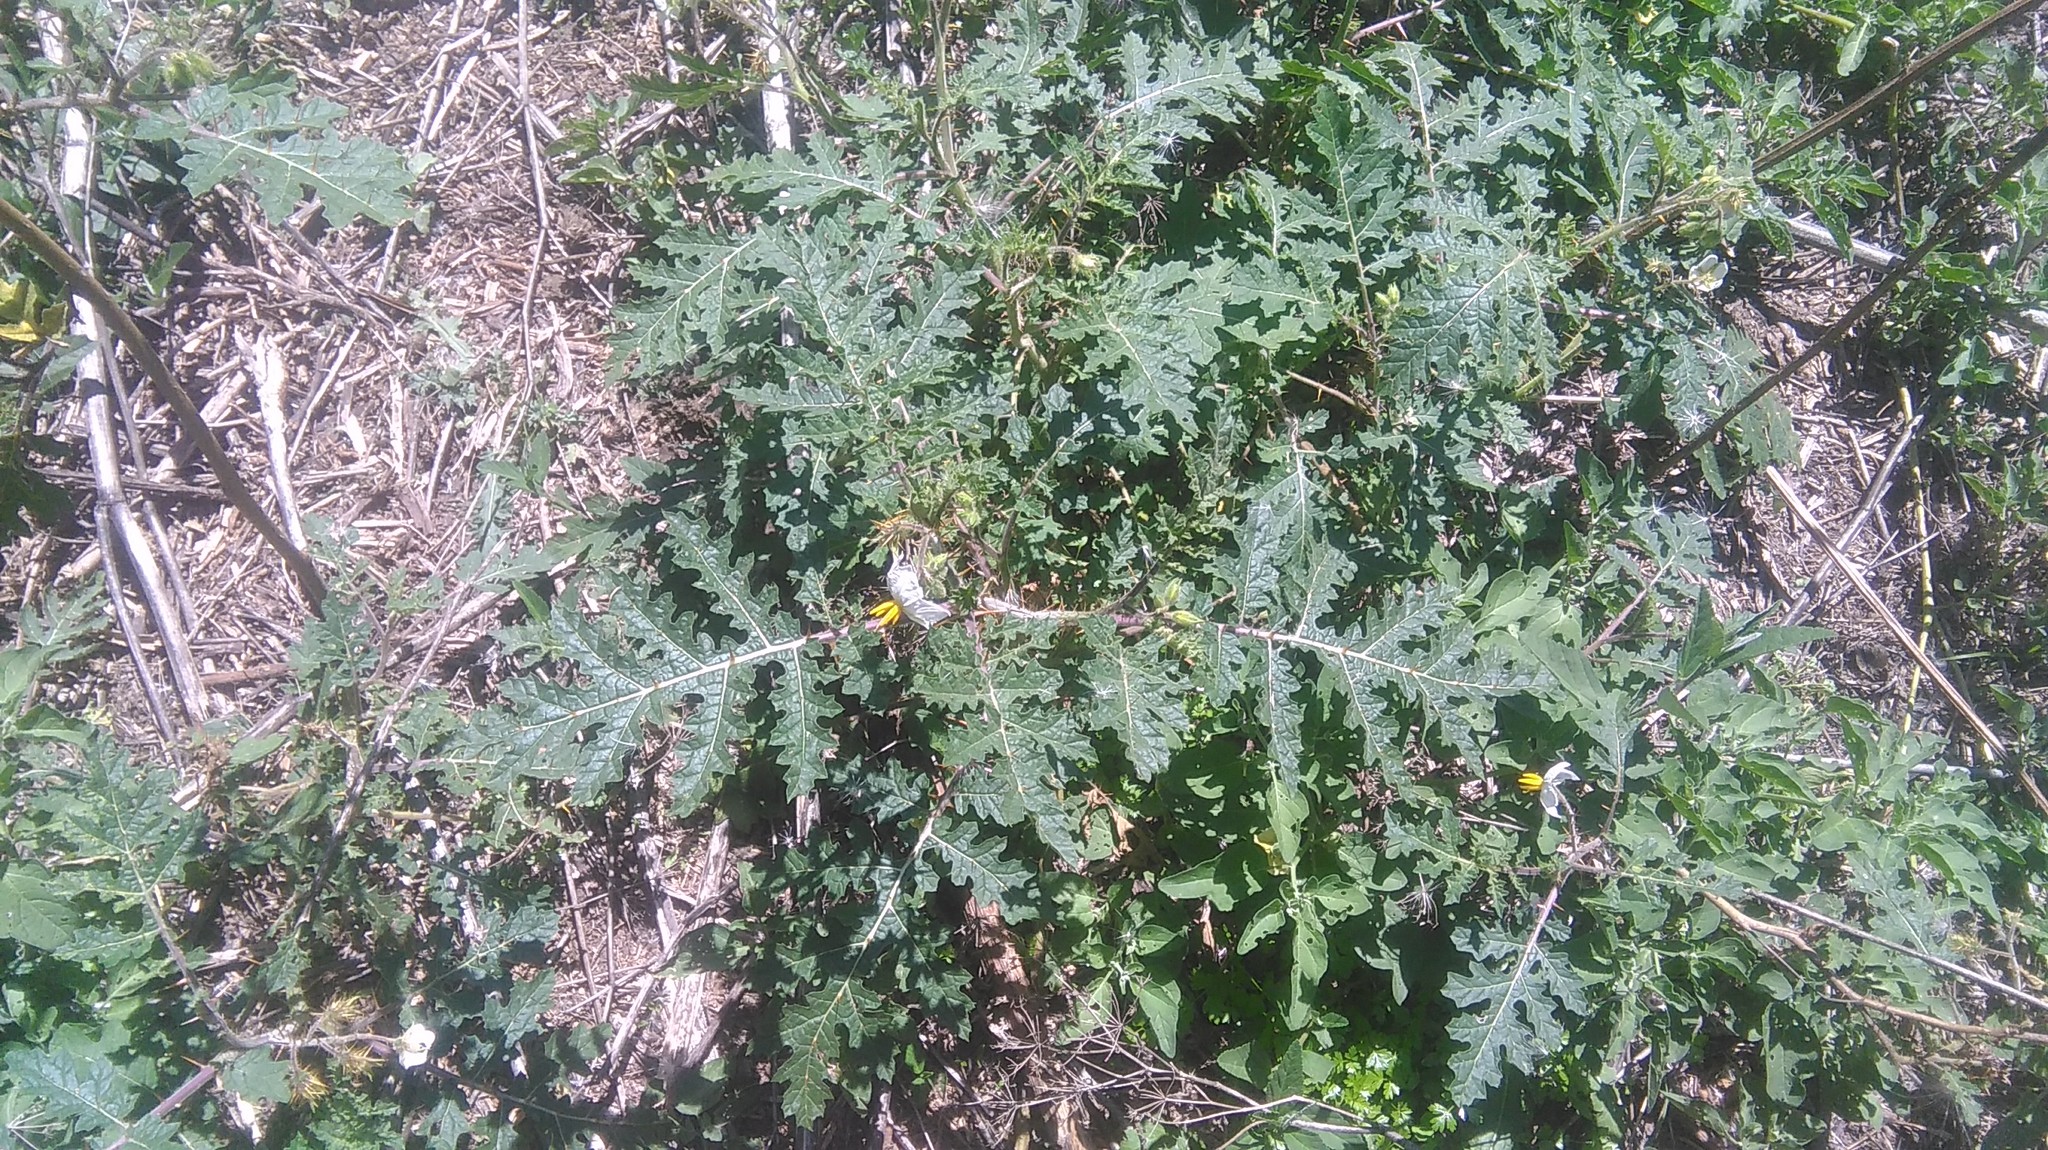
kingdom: Plantae
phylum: Tracheophyta
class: Magnoliopsida
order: Solanales
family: Solanaceae
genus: Solanum
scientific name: Solanum sisymbriifolium
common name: Red buffalo-bur
